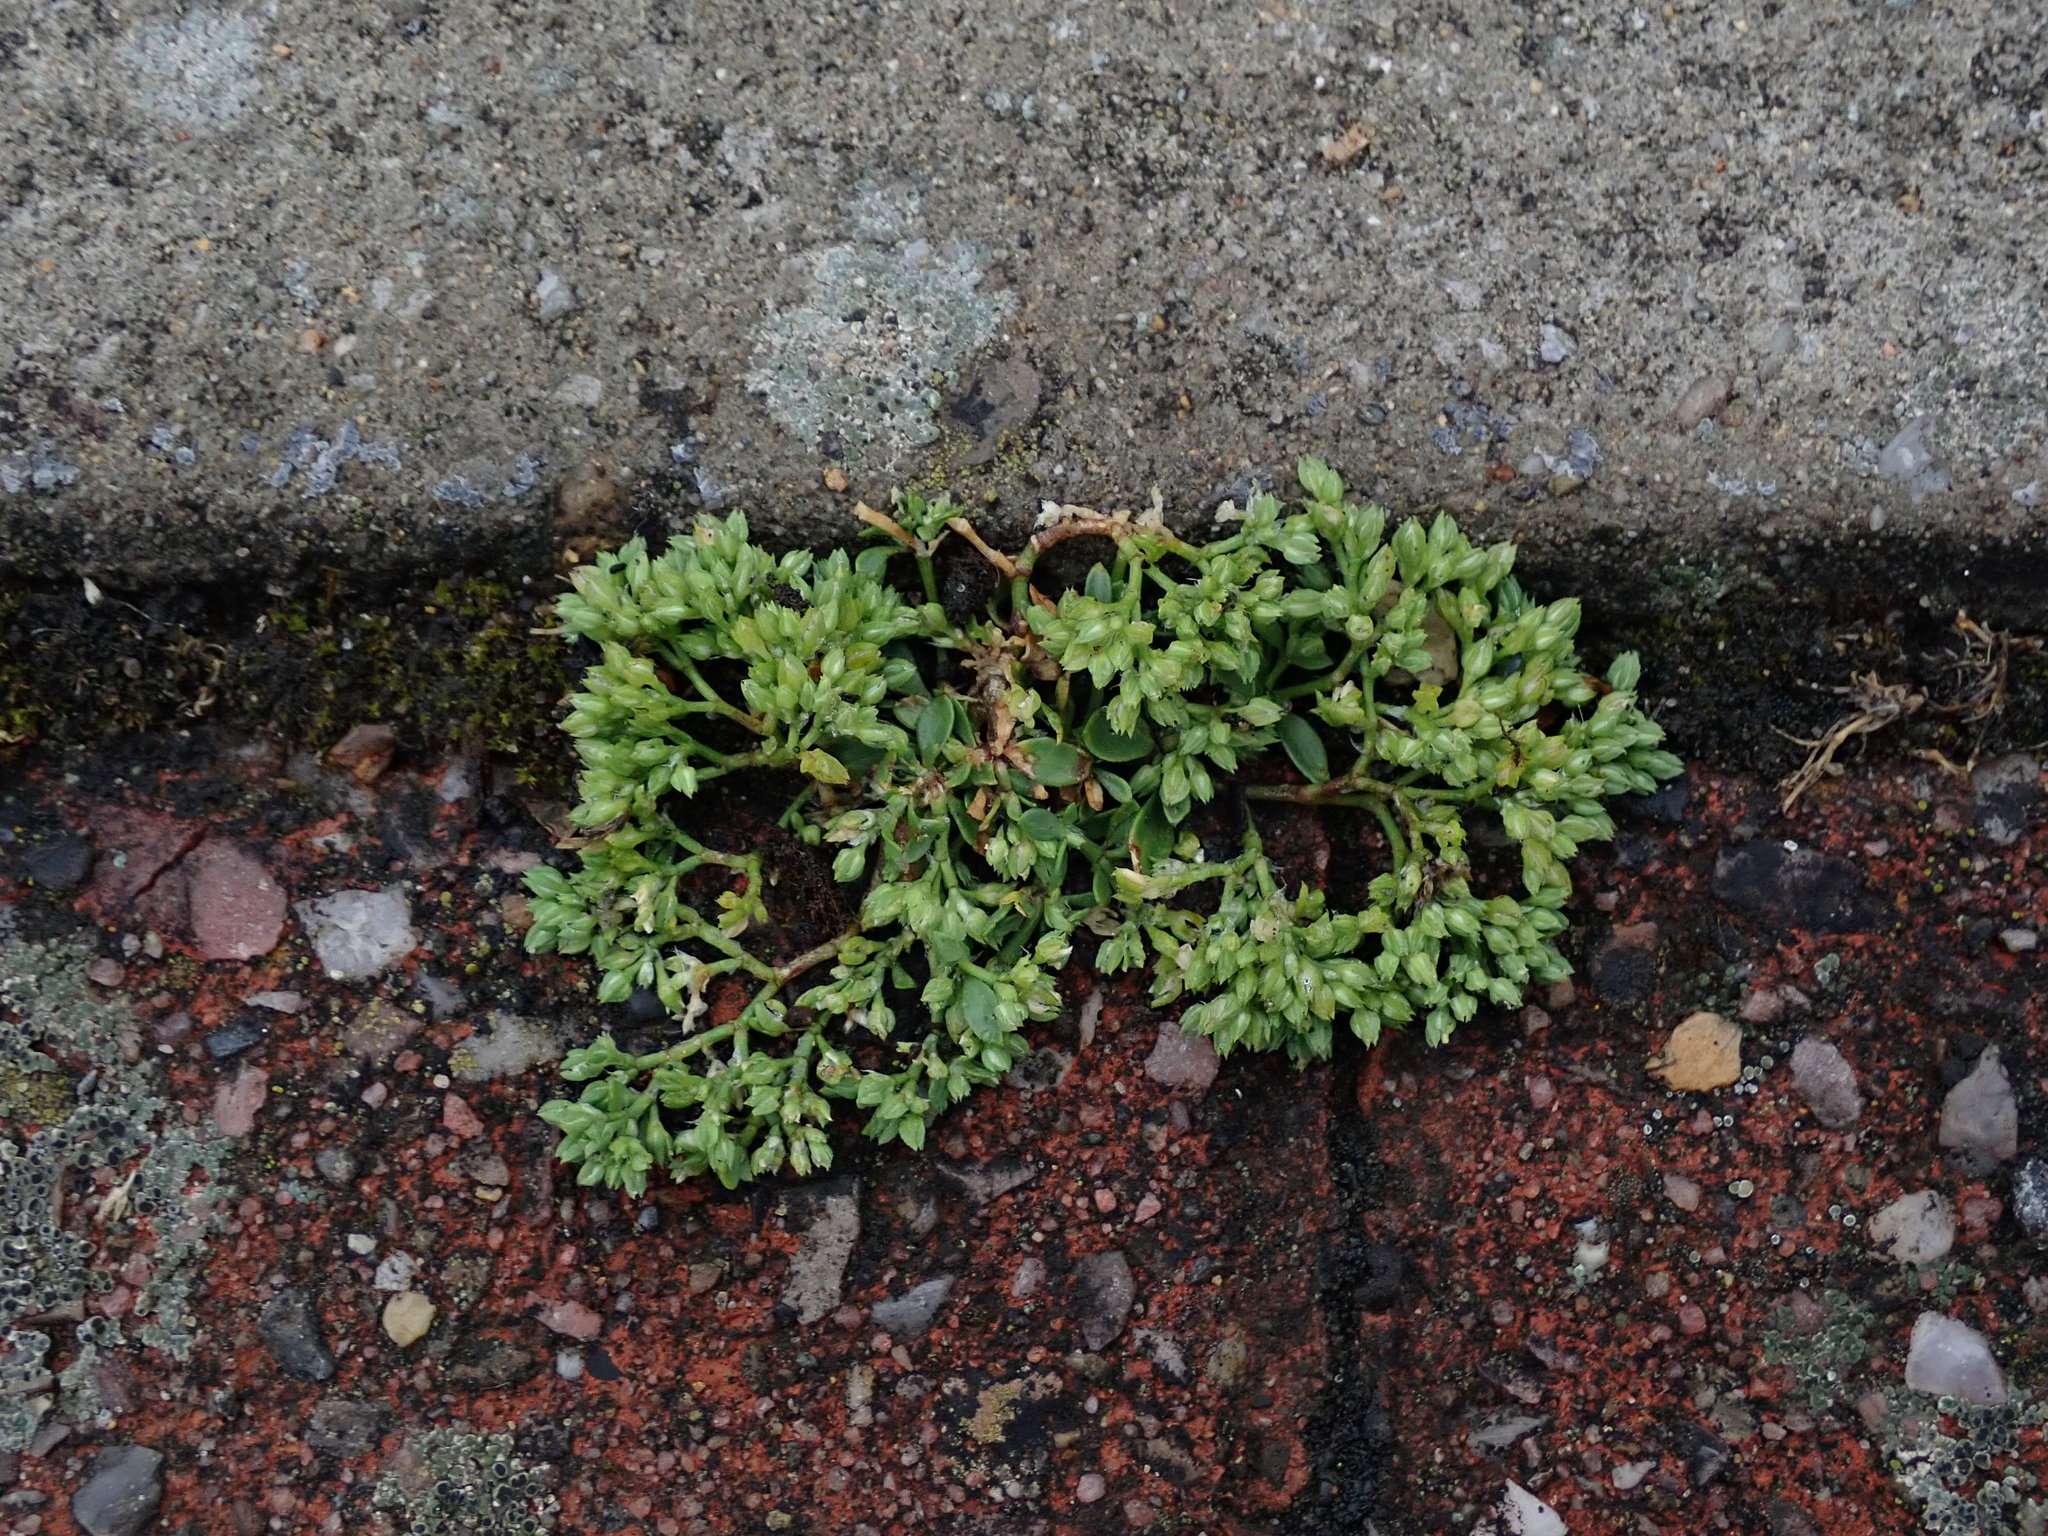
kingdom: Plantae
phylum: Tracheophyta
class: Magnoliopsida
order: Caryophyllales
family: Caryophyllaceae
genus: Polycarpon
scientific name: Polycarpon tetraphyllum
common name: Four-leaved all-seed
